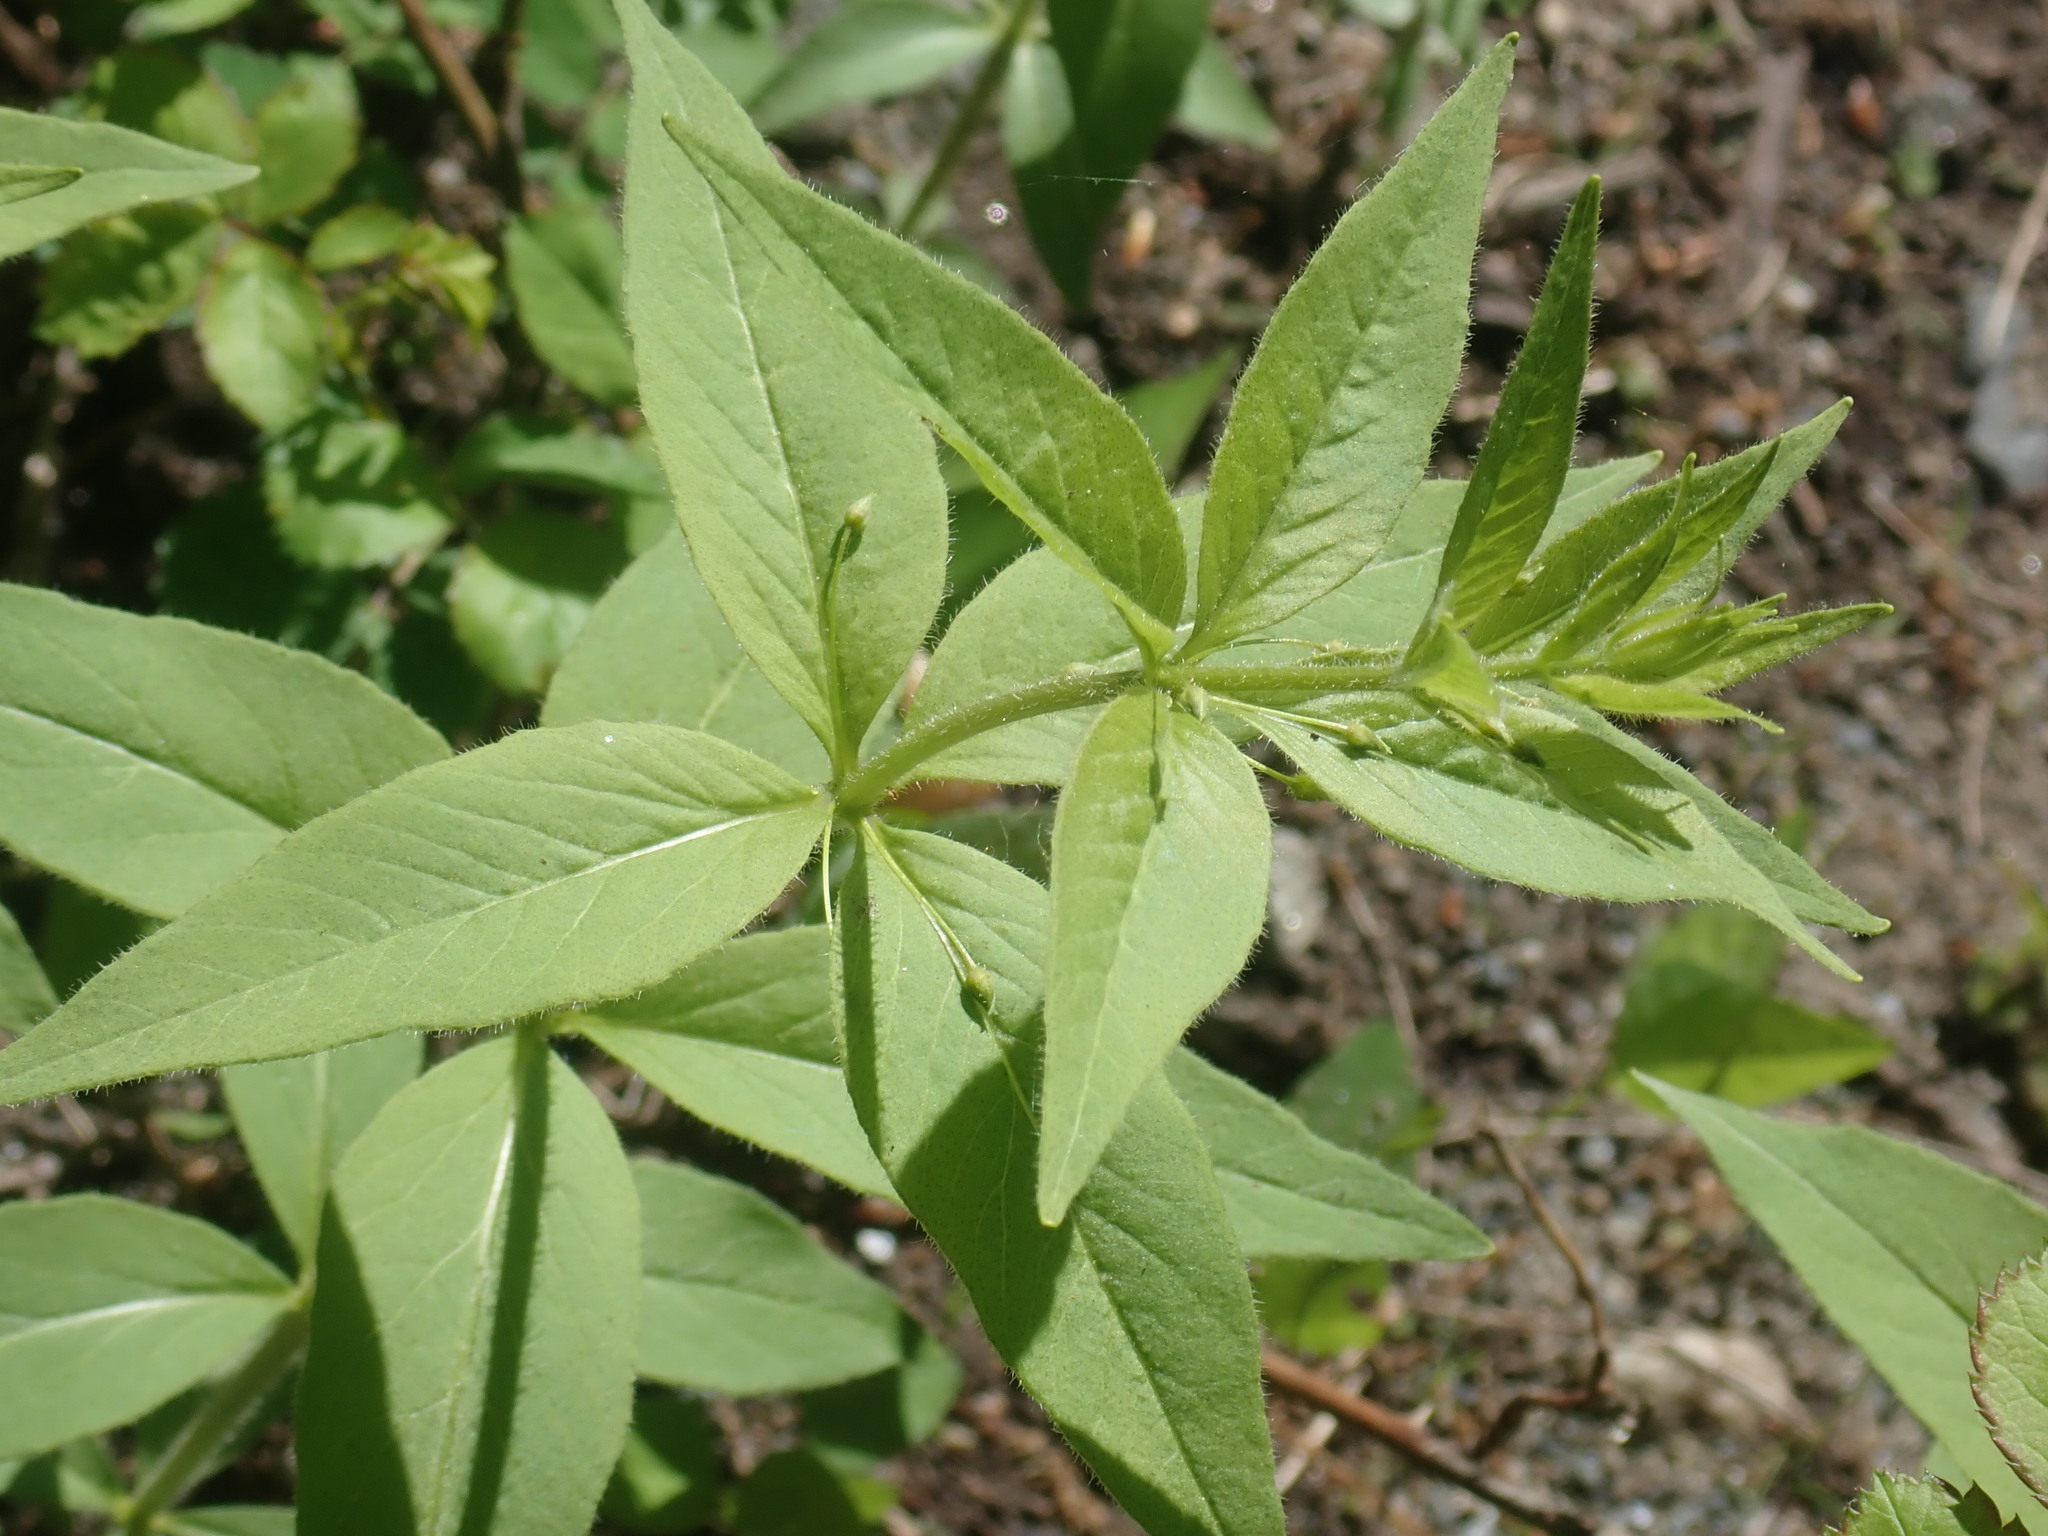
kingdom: Plantae
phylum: Tracheophyta
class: Magnoliopsida
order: Ericales
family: Primulaceae
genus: Lysimachia
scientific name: Lysimachia quadrifolia
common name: Whorled loosestrife
